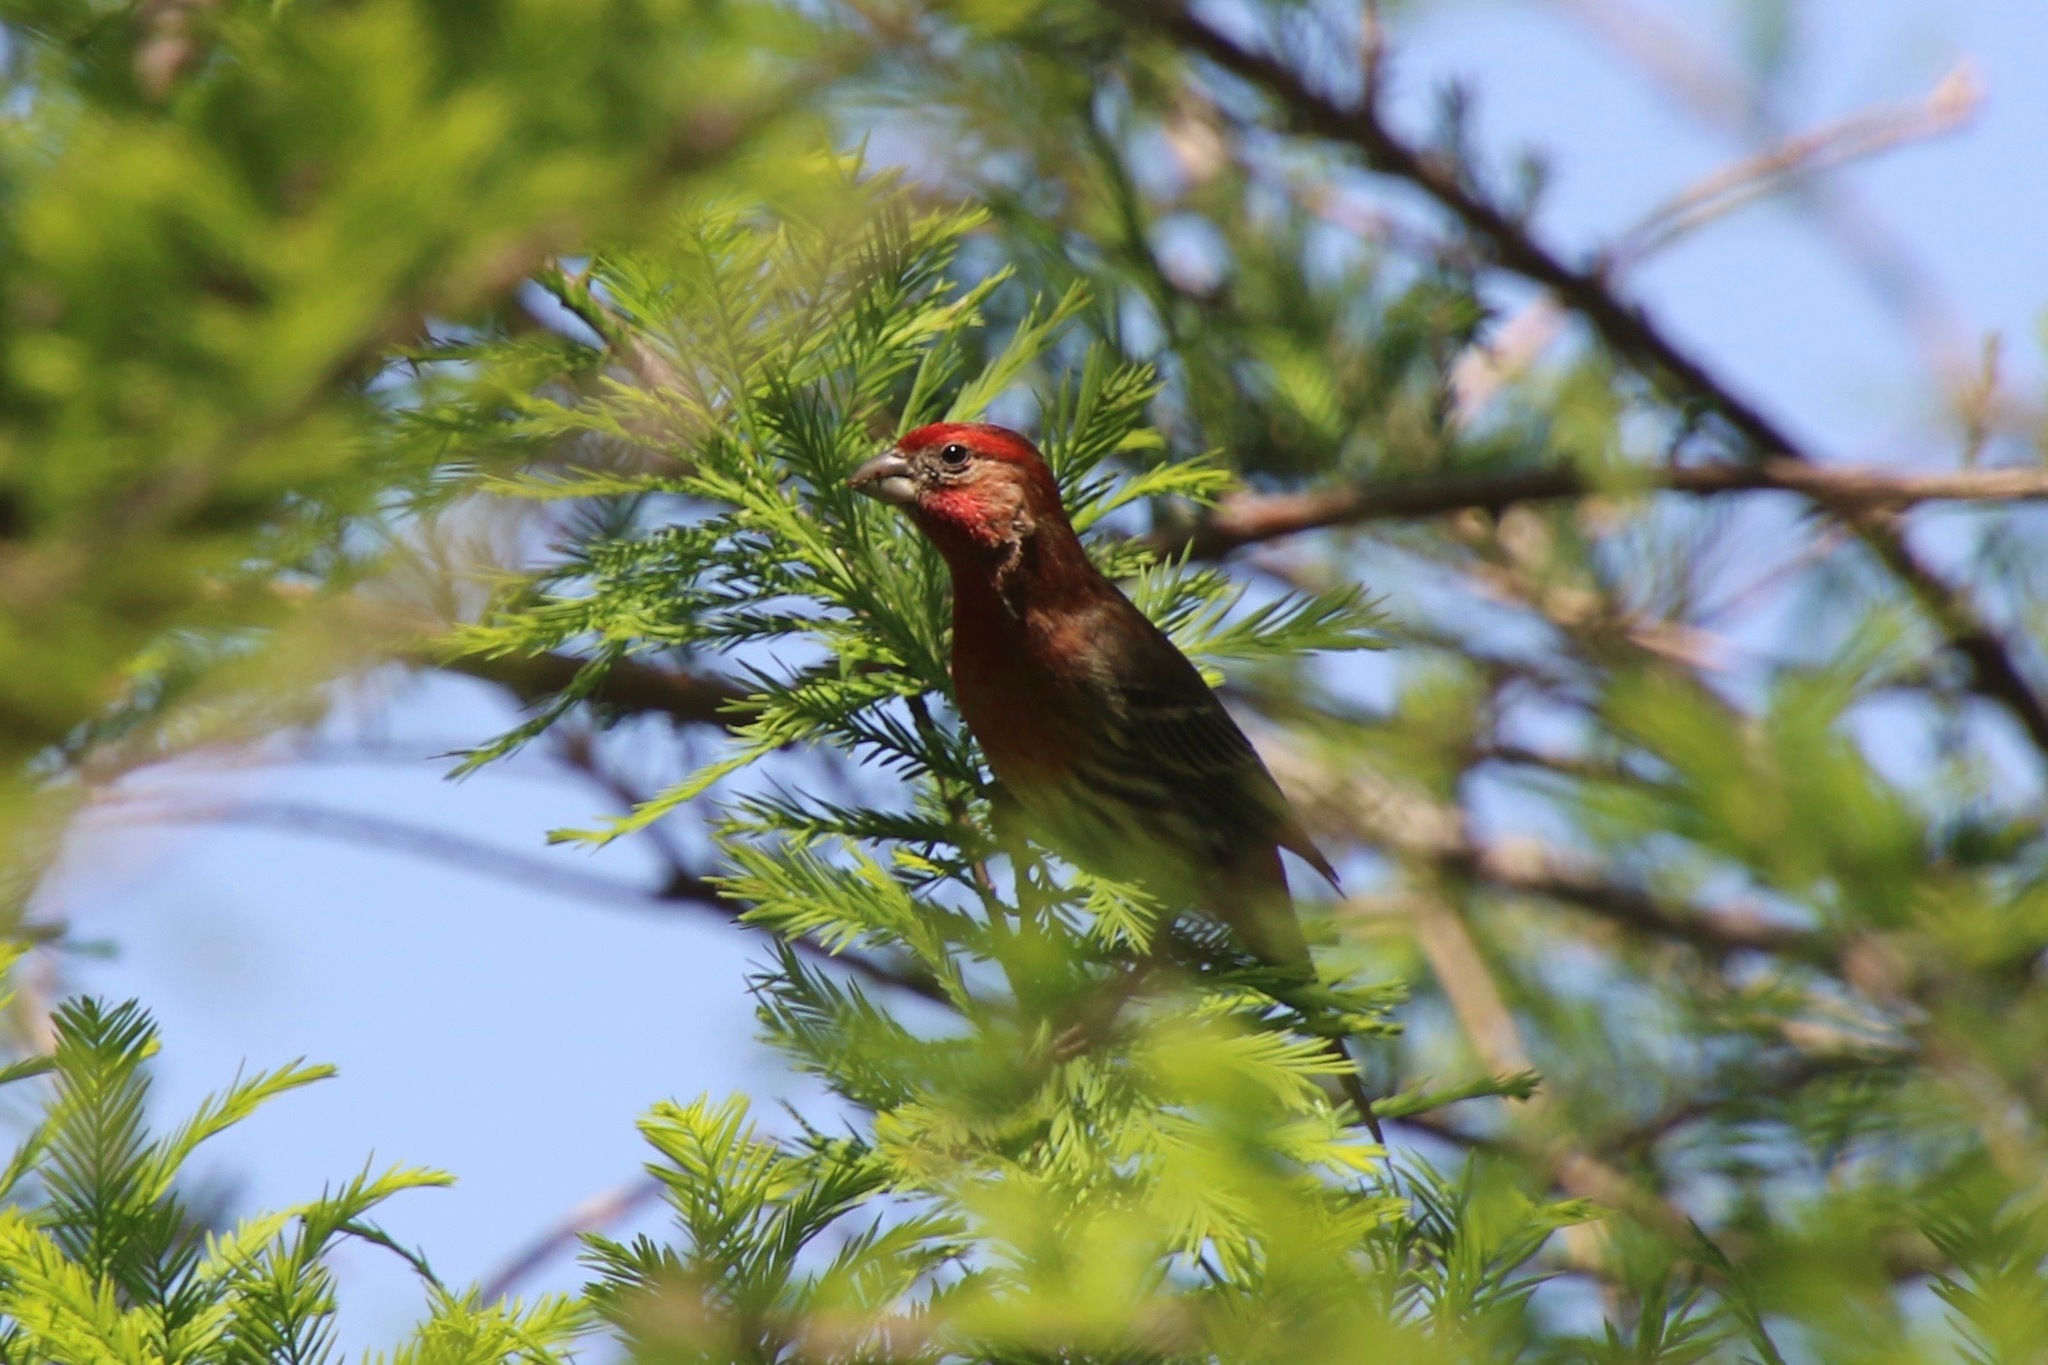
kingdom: Animalia
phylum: Chordata
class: Aves
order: Passeriformes
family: Fringillidae
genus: Haemorhous
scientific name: Haemorhous mexicanus
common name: House finch
